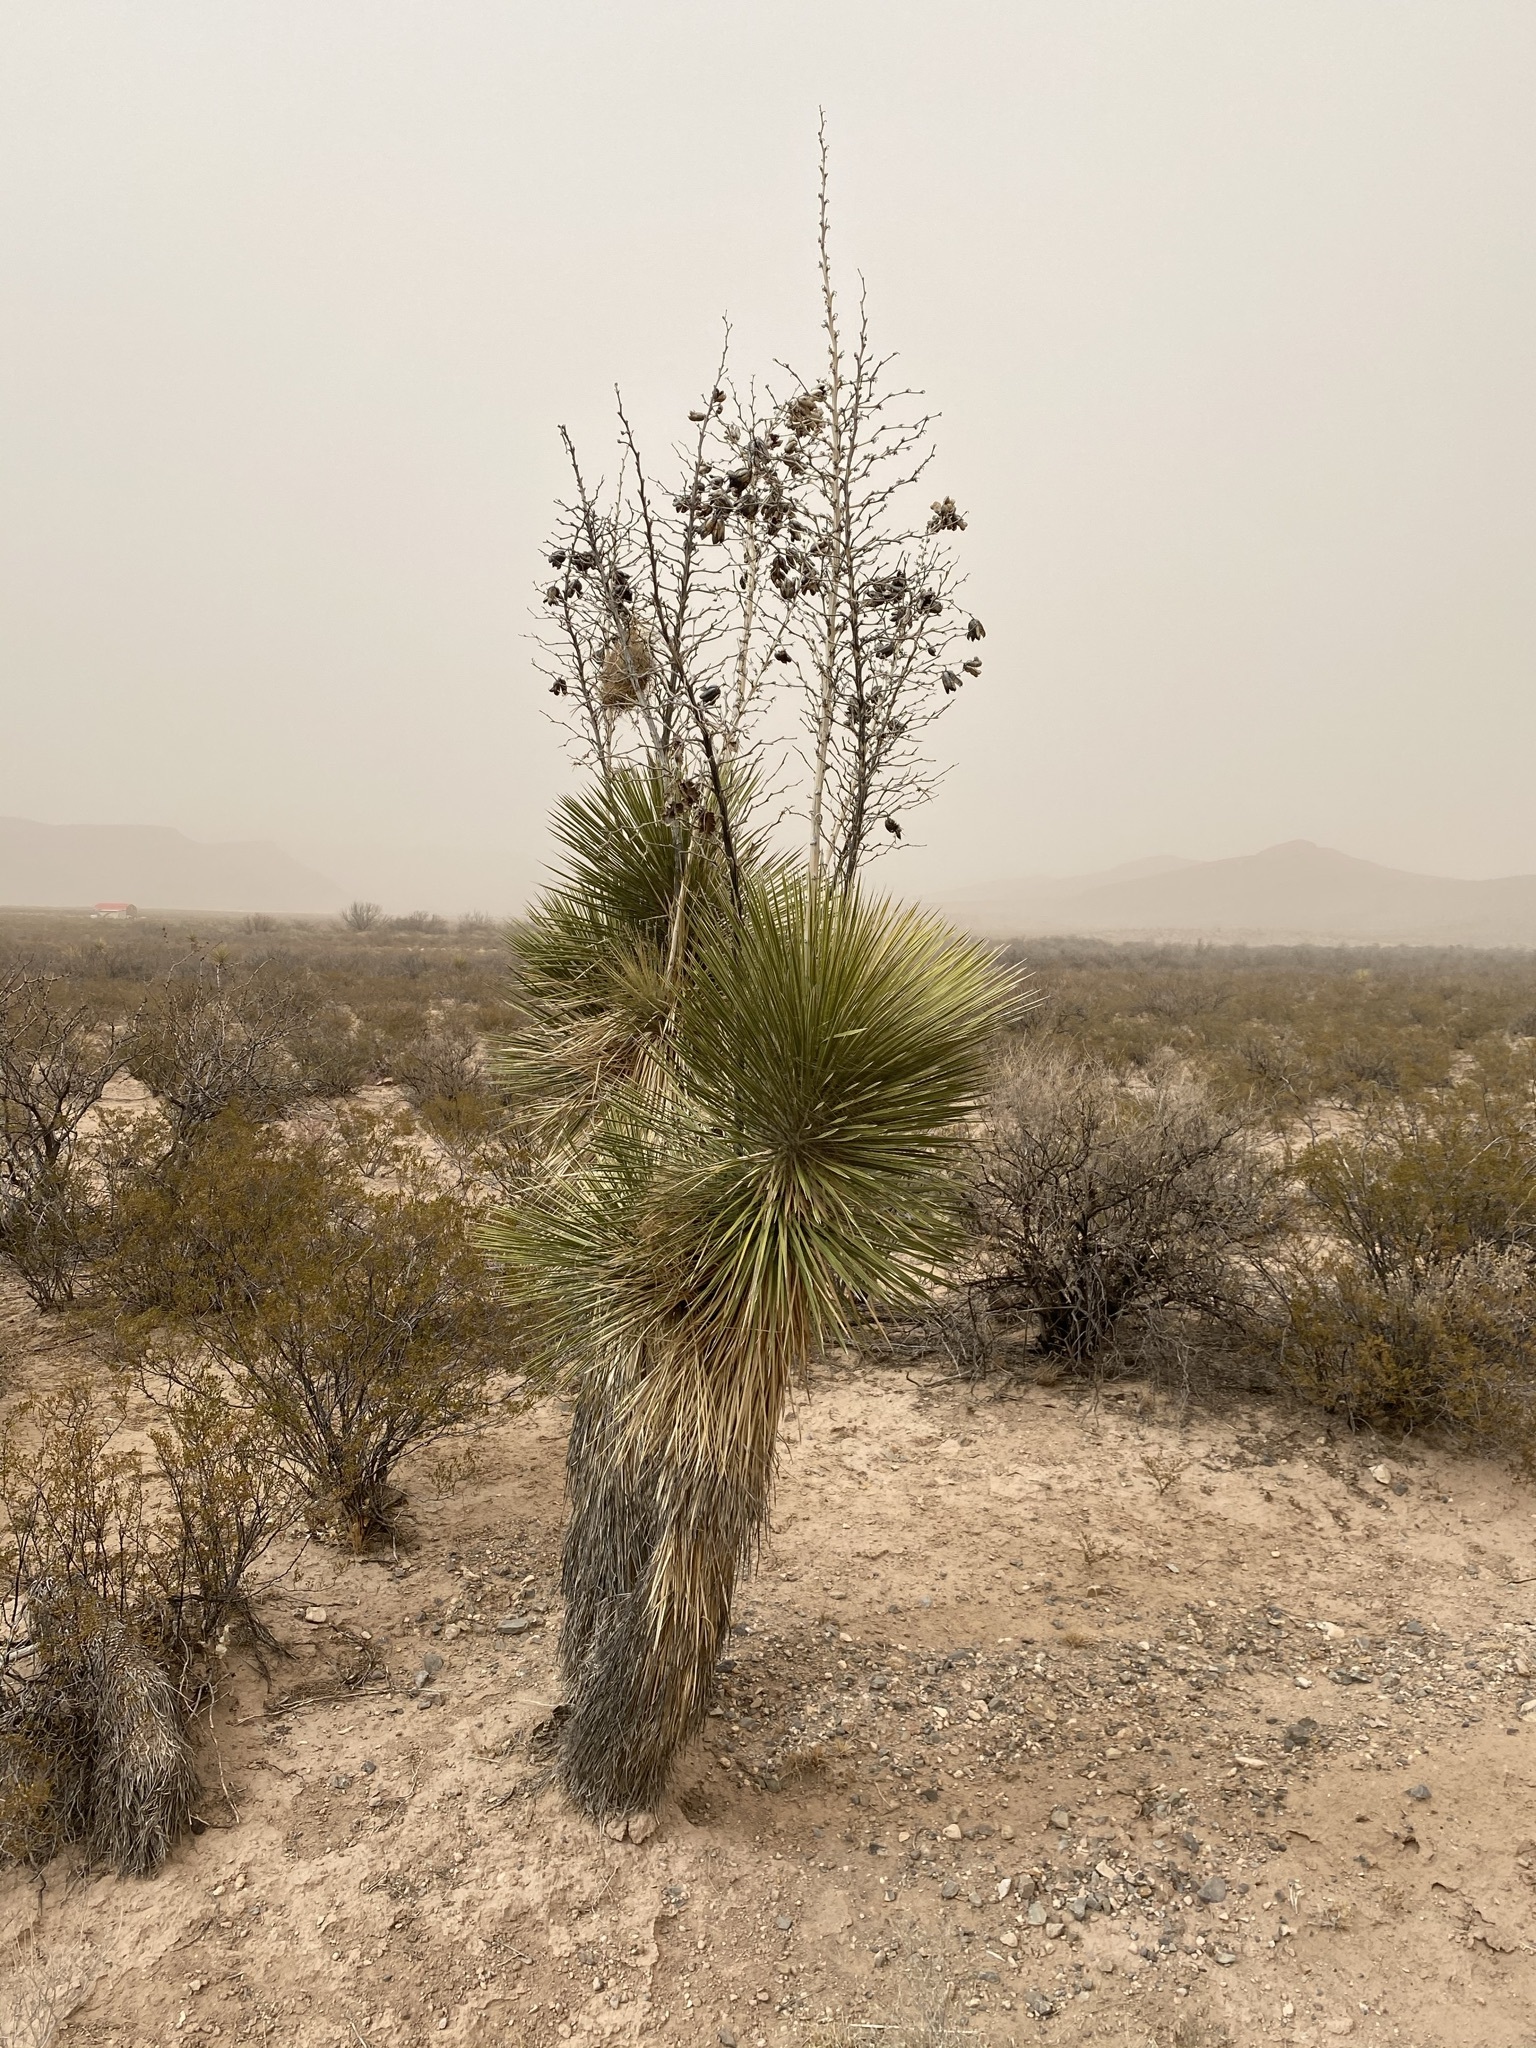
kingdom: Plantae
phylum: Tracheophyta
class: Liliopsida
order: Asparagales
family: Asparagaceae
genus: Yucca
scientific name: Yucca elata
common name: Palmella
